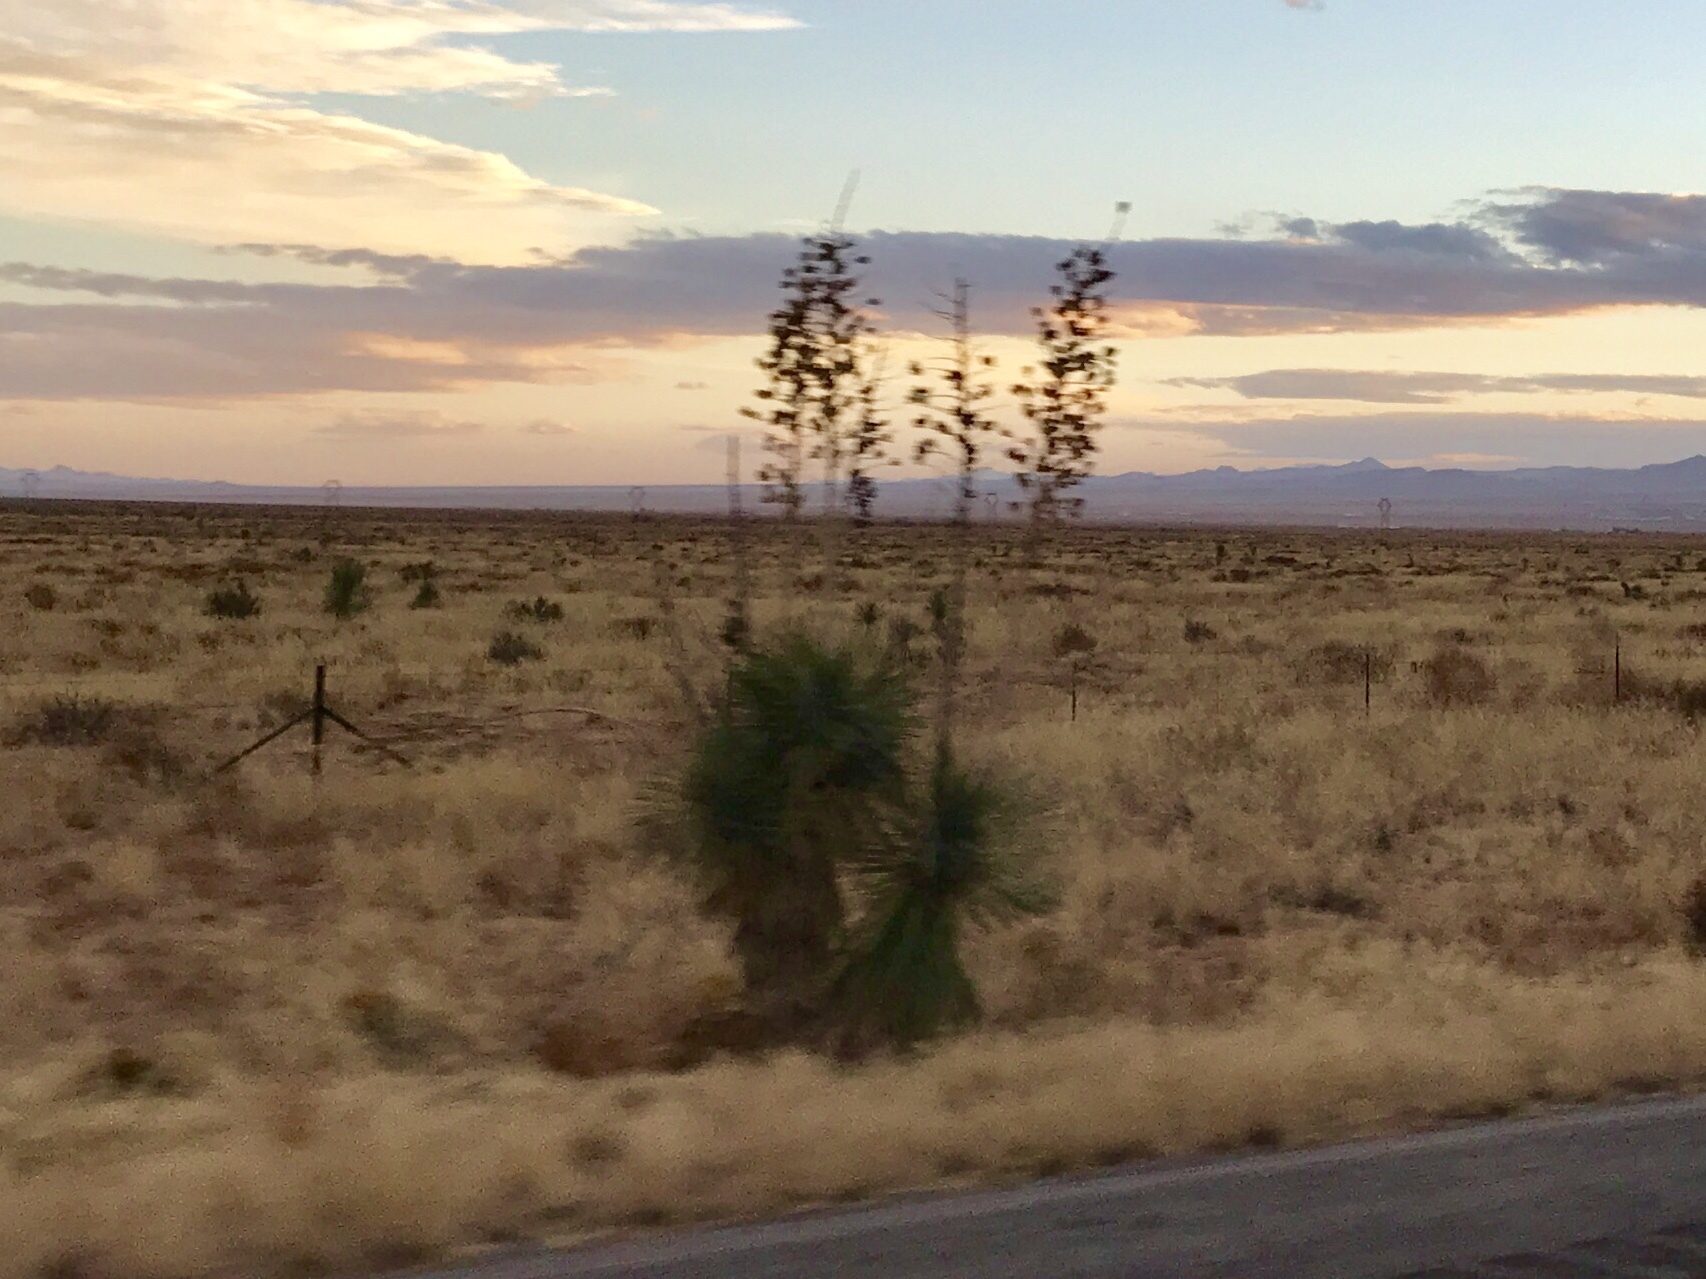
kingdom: Plantae
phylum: Tracheophyta
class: Liliopsida
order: Asparagales
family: Asparagaceae
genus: Yucca
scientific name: Yucca elata
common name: Palmella
